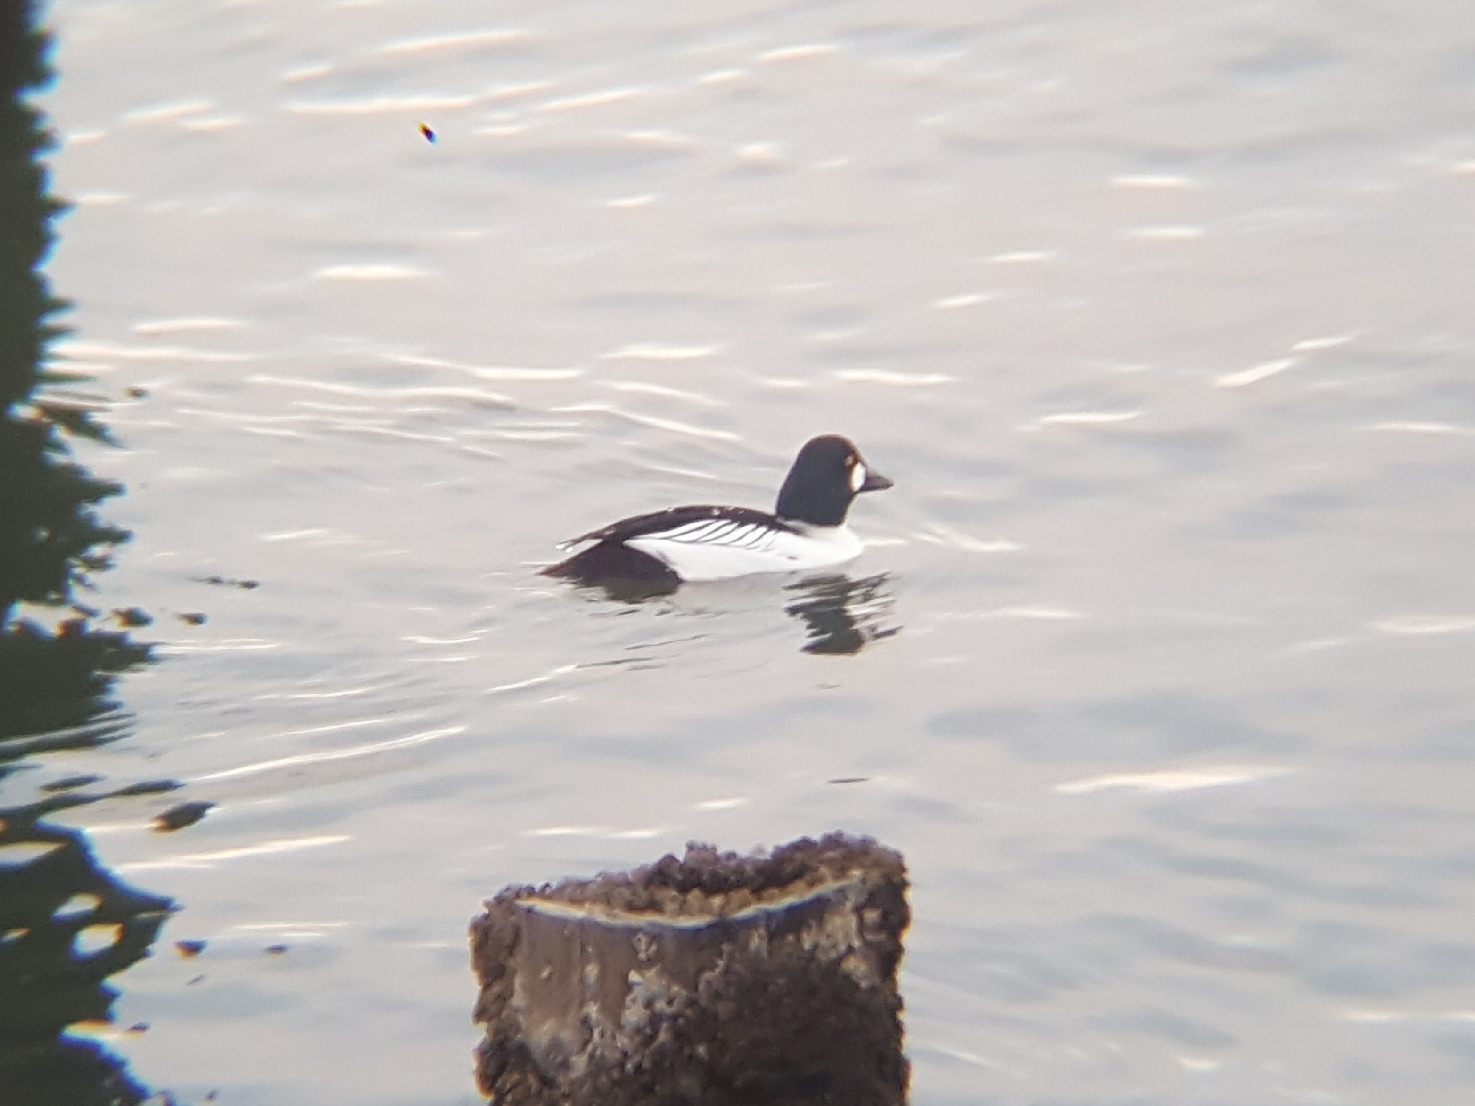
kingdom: Animalia
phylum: Chordata
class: Aves
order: Anseriformes
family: Anatidae
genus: Bucephala
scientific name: Bucephala clangula
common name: Common goldeneye
